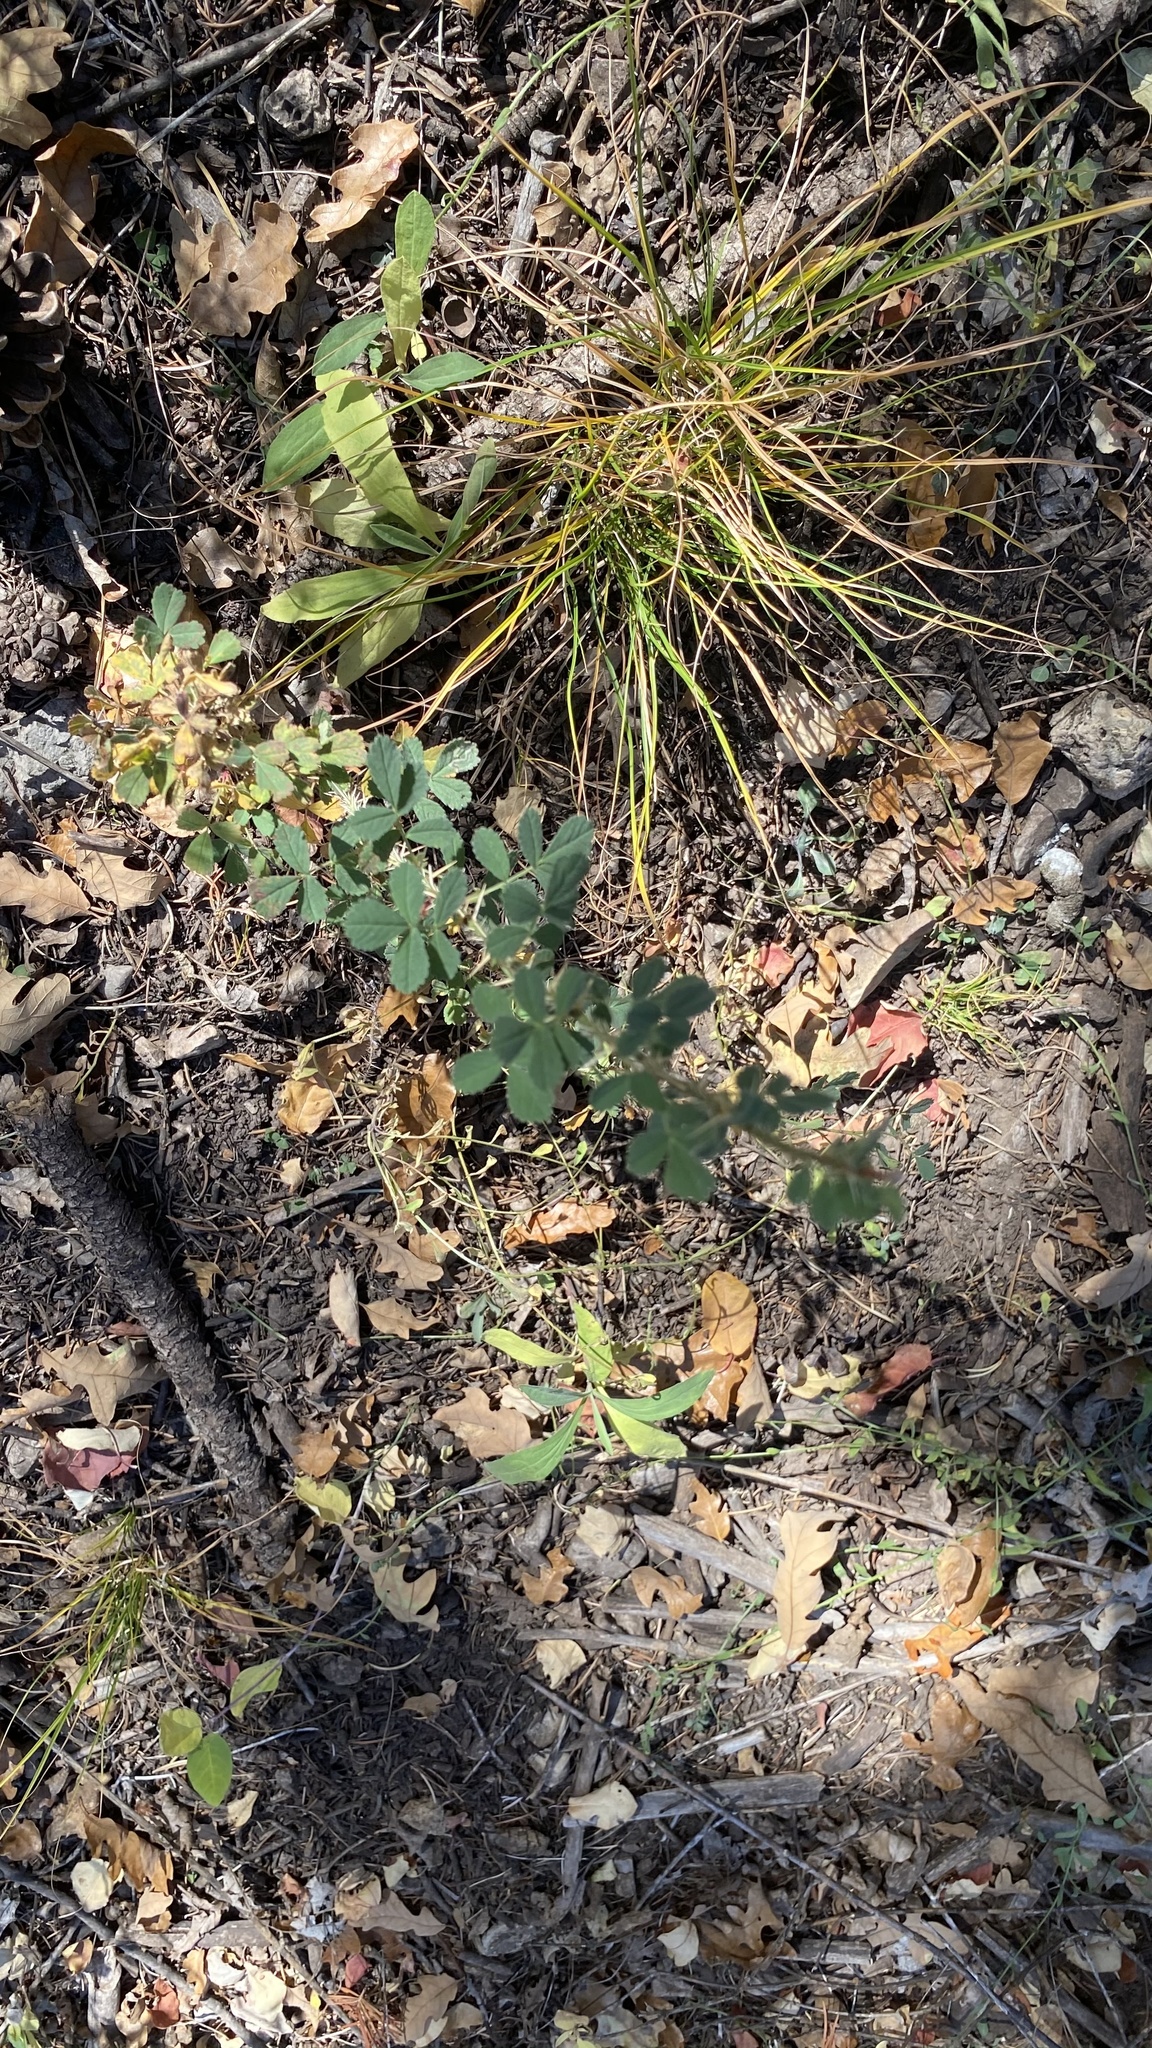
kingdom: Plantae
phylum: Tracheophyta
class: Magnoliopsida
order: Rosales
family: Rosaceae
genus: Rosa
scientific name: Rosa stellata
